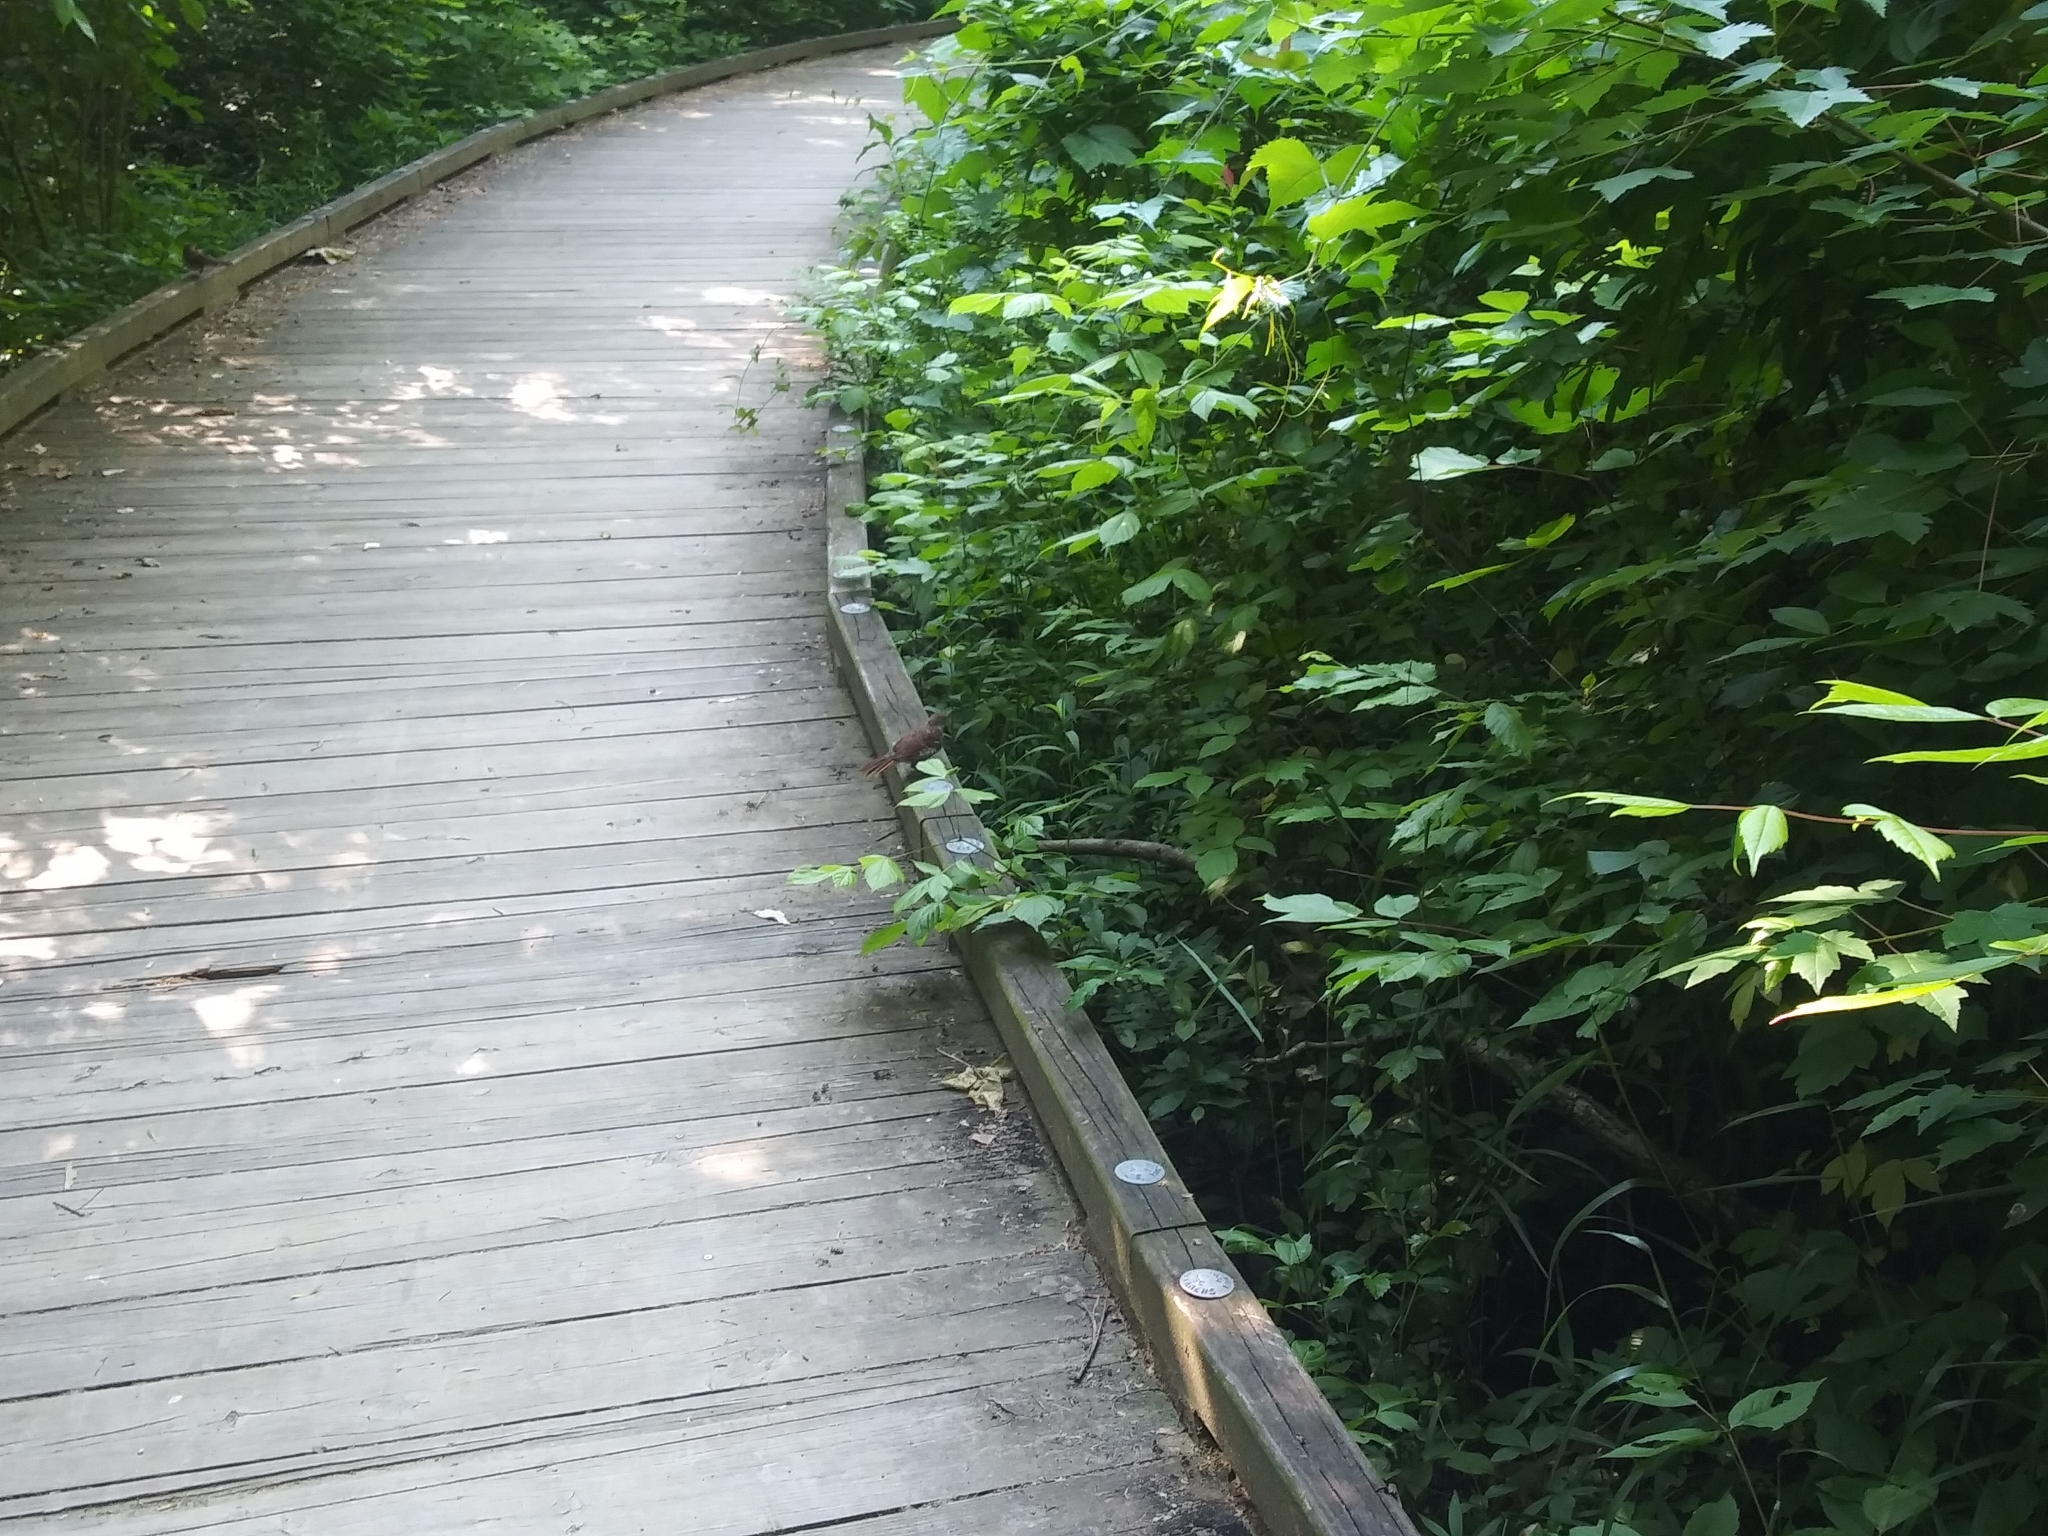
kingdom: Animalia
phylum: Chordata
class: Aves
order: Passeriformes
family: Mimidae
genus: Toxostoma
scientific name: Toxostoma rufum
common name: Brown thrasher
